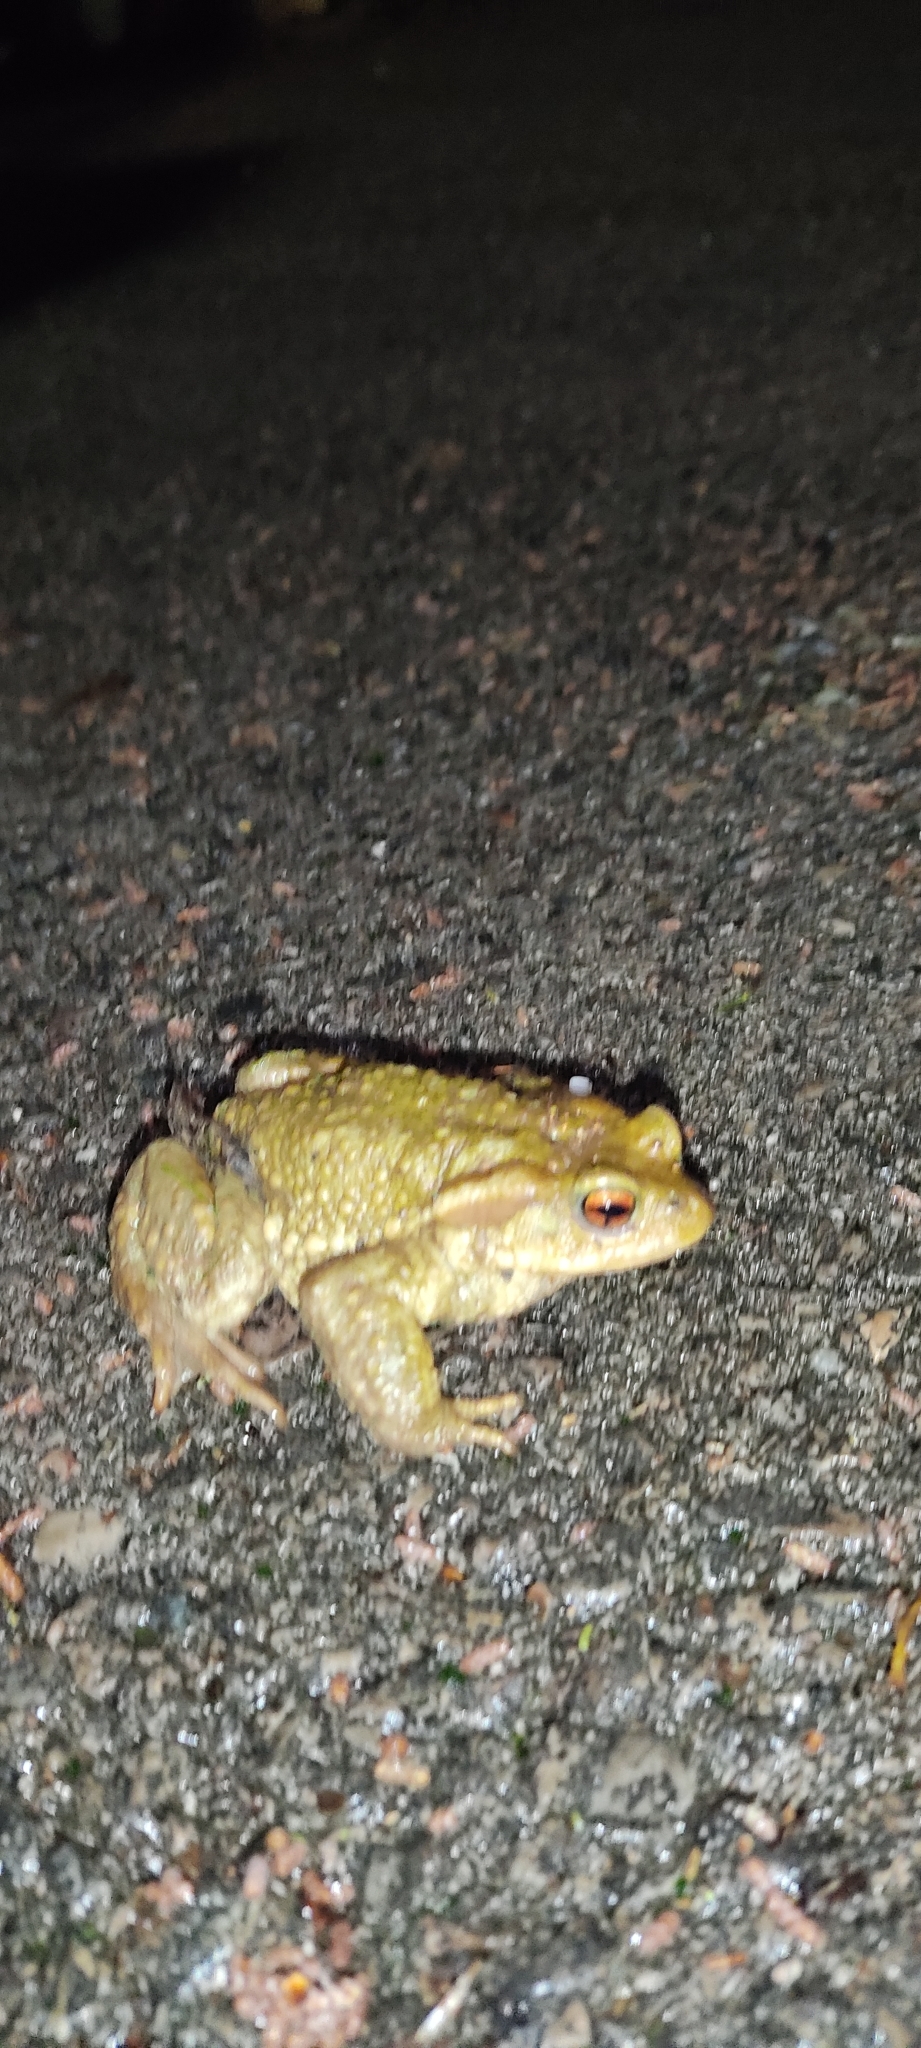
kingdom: Animalia
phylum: Chordata
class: Amphibia
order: Anura
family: Bufonidae
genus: Bufo
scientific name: Bufo spinosus
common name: Western common toad
